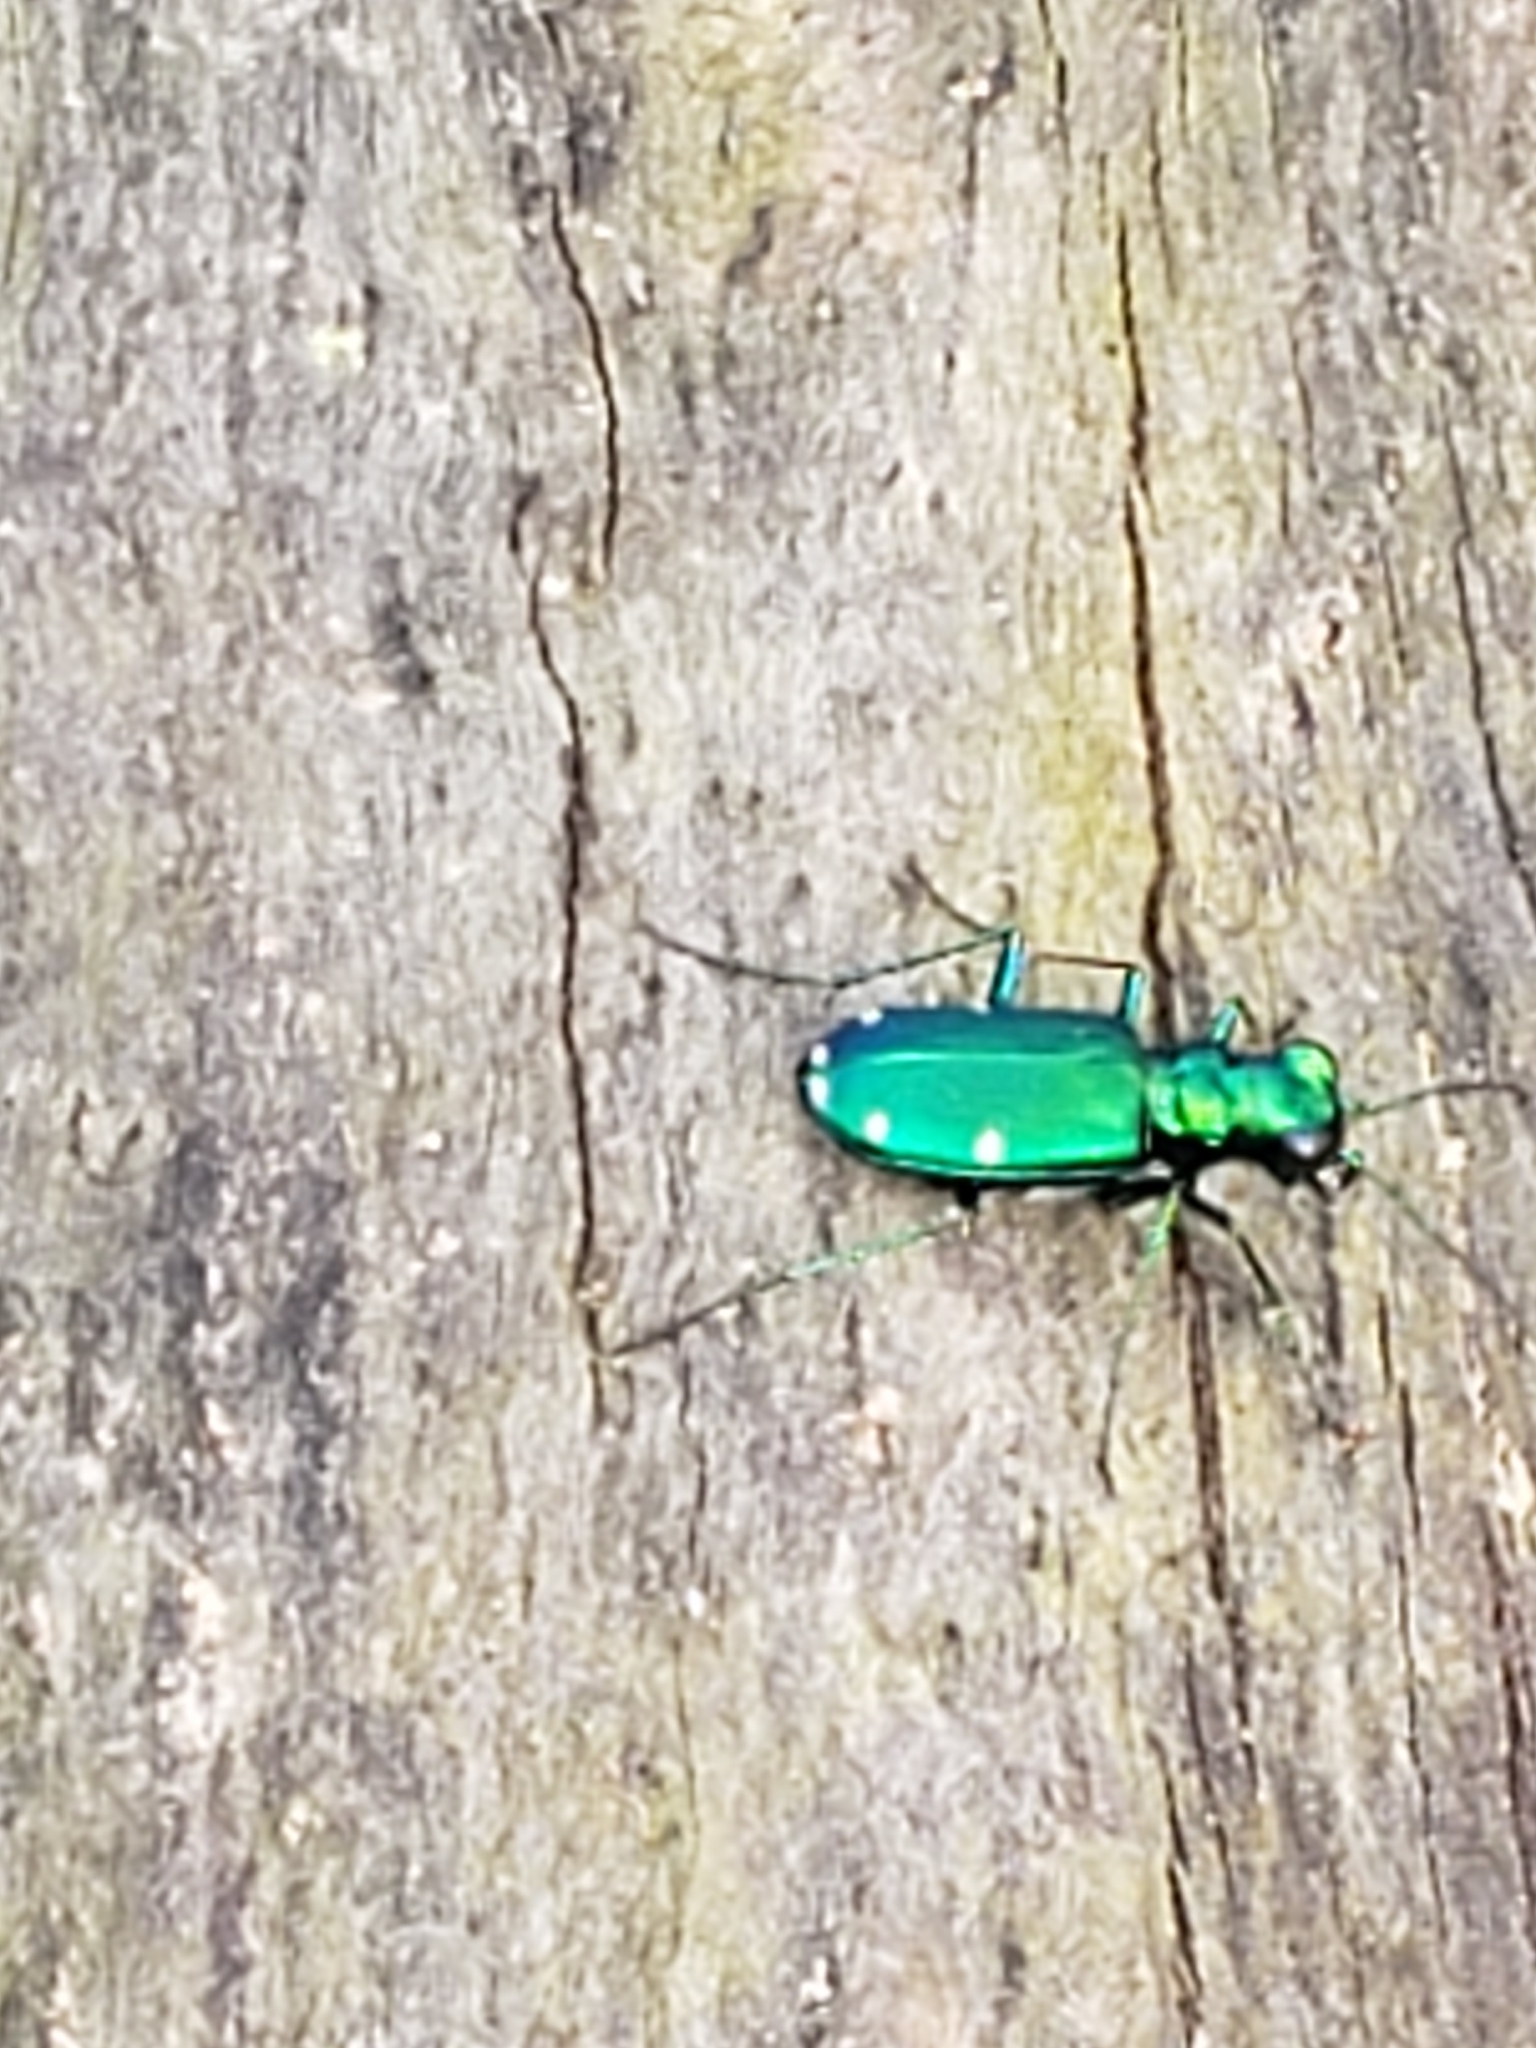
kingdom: Animalia
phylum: Arthropoda
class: Insecta
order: Coleoptera
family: Carabidae
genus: Cicindela
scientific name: Cicindela sexguttata
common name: Six-spotted tiger beetle
